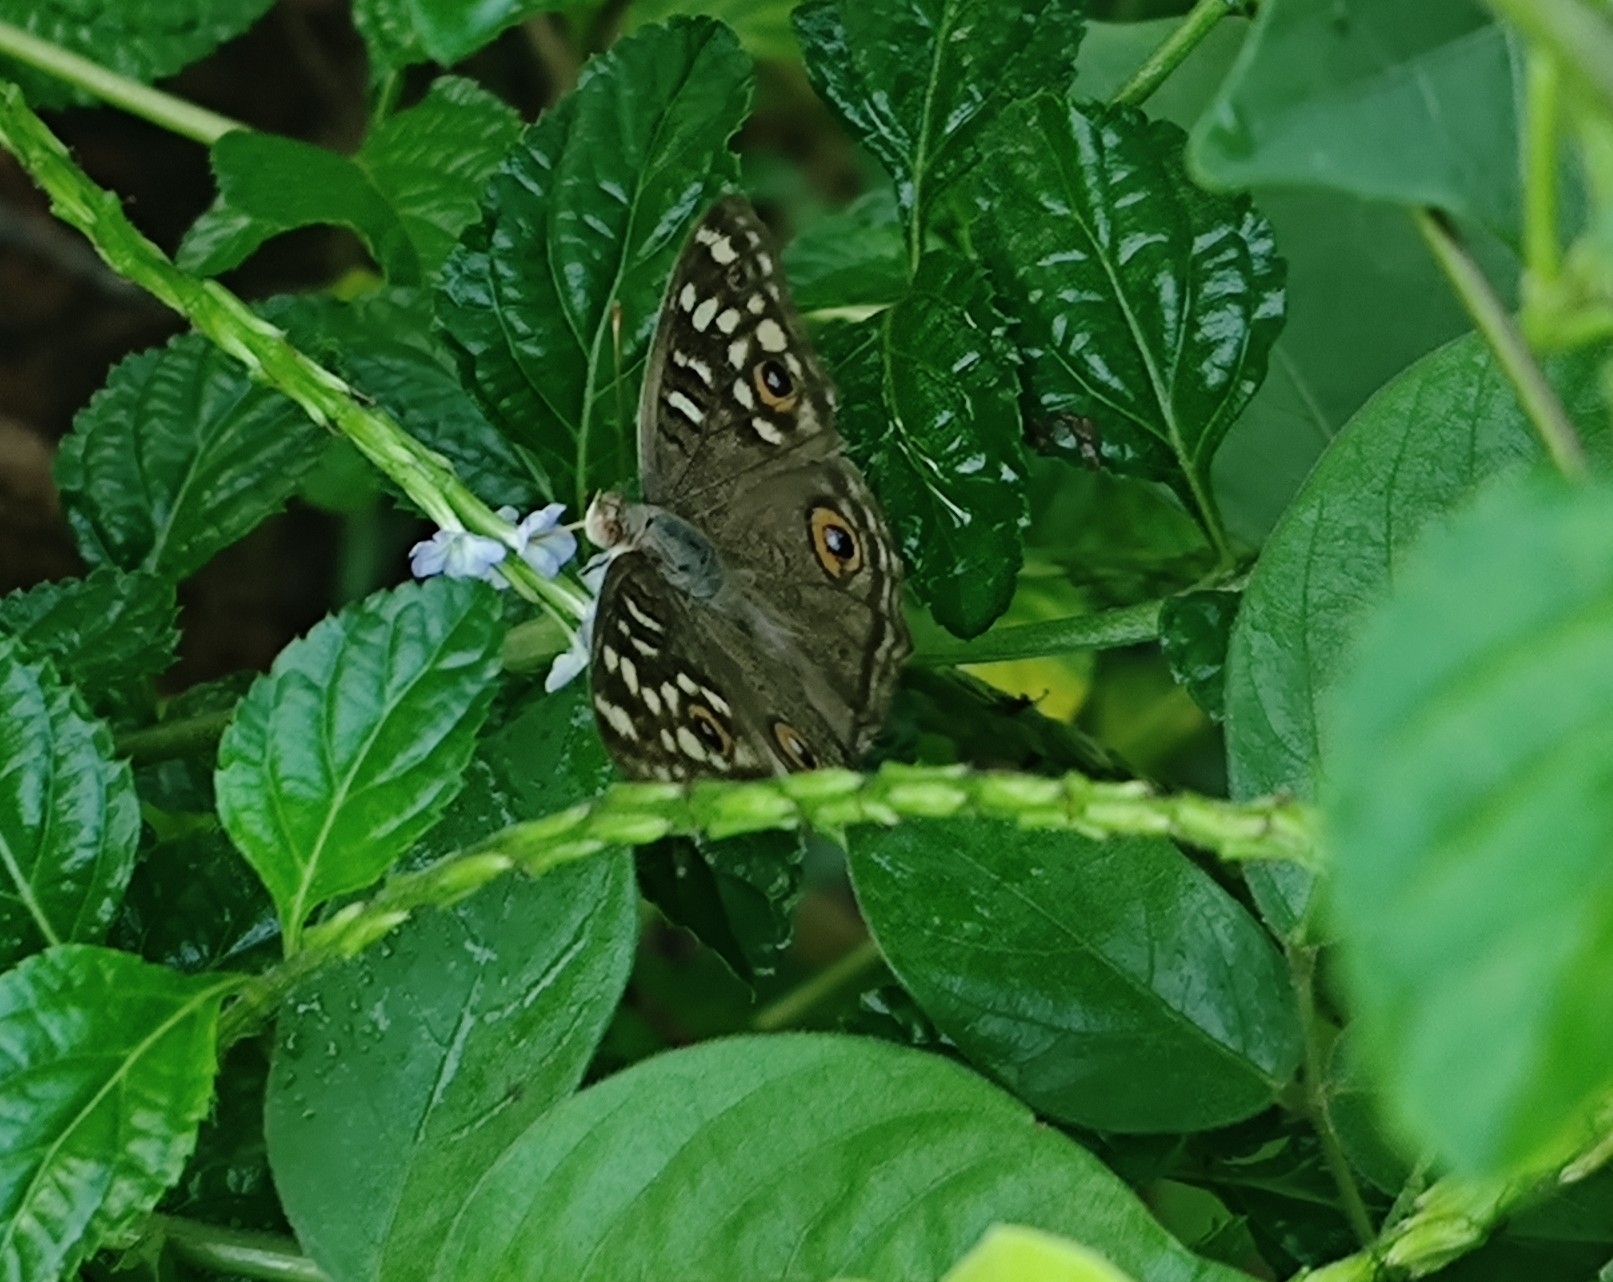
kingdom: Animalia
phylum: Arthropoda
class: Insecta
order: Lepidoptera
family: Nymphalidae
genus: Junonia
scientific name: Junonia lemonias
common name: Lemon pansy
